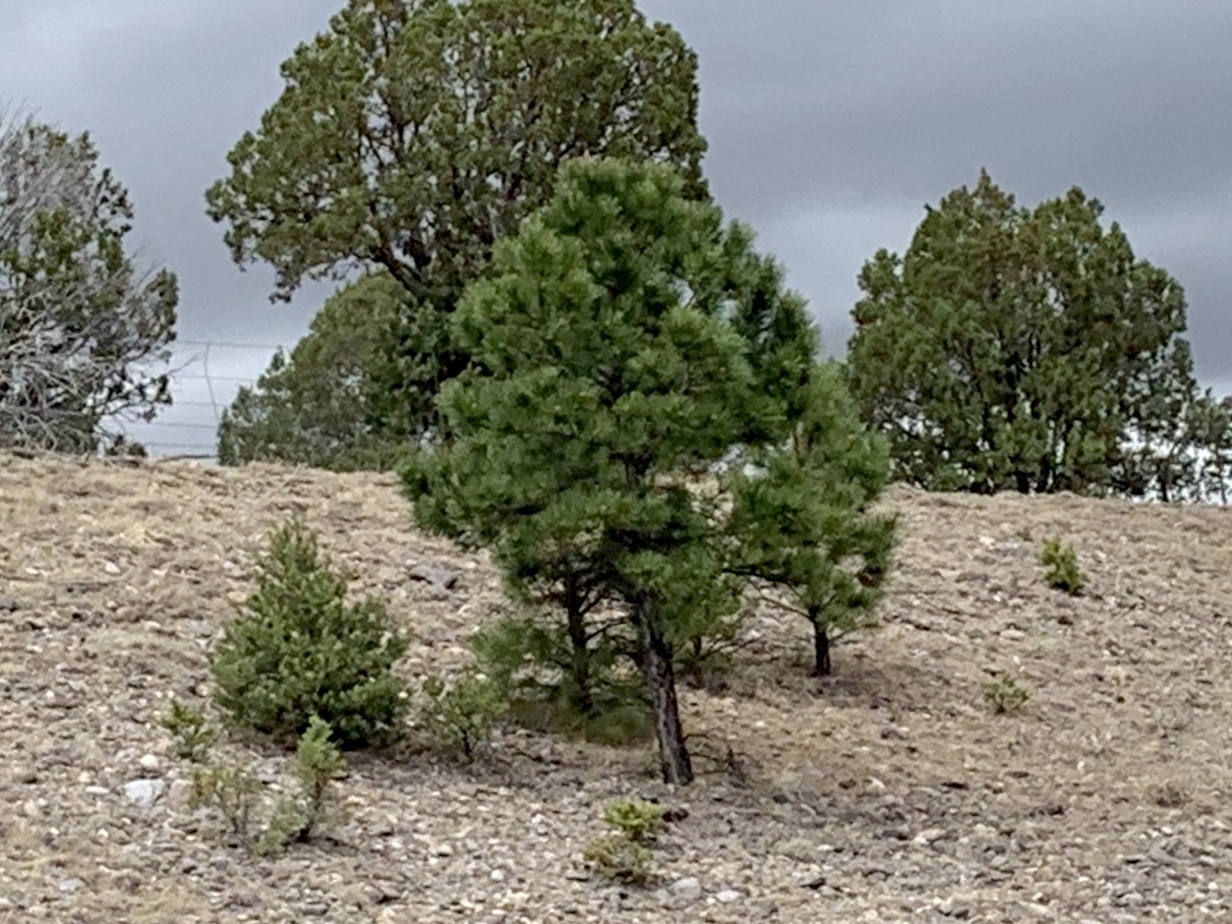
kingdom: Plantae
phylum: Tracheophyta
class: Pinopsida
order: Pinales
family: Pinaceae
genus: Pinus
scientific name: Pinus ponderosa
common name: Western yellow-pine
